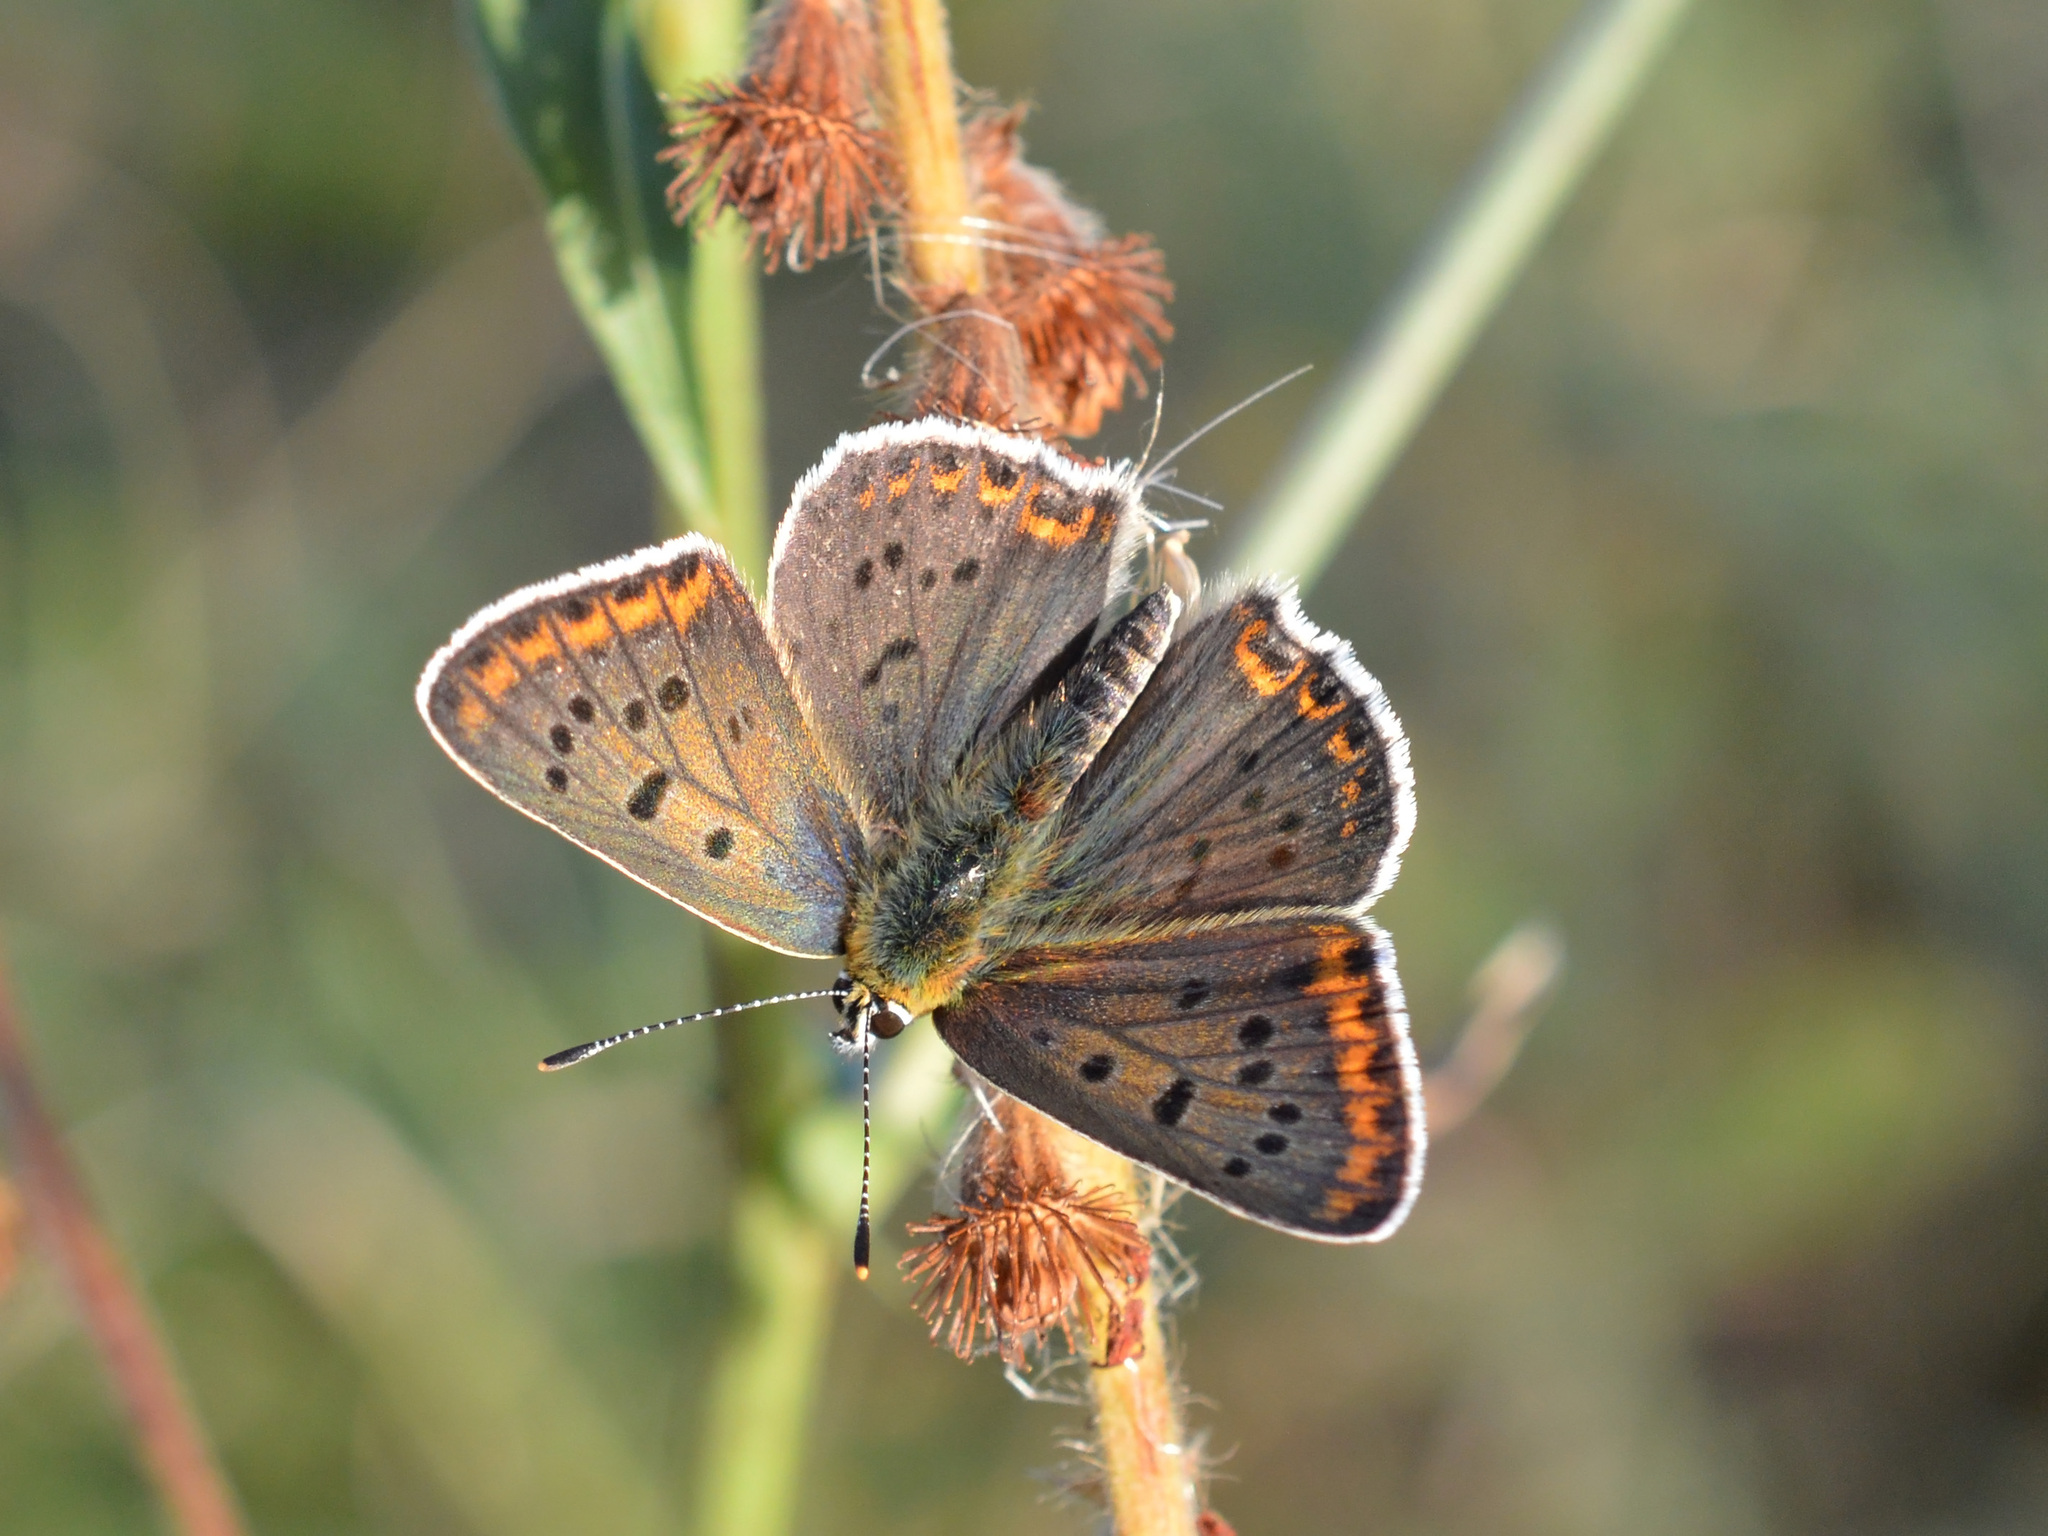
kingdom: Animalia
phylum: Arthropoda
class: Insecta
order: Lepidoptera
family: Lycaenidae
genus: Loweia
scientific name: Loweia tityrus
